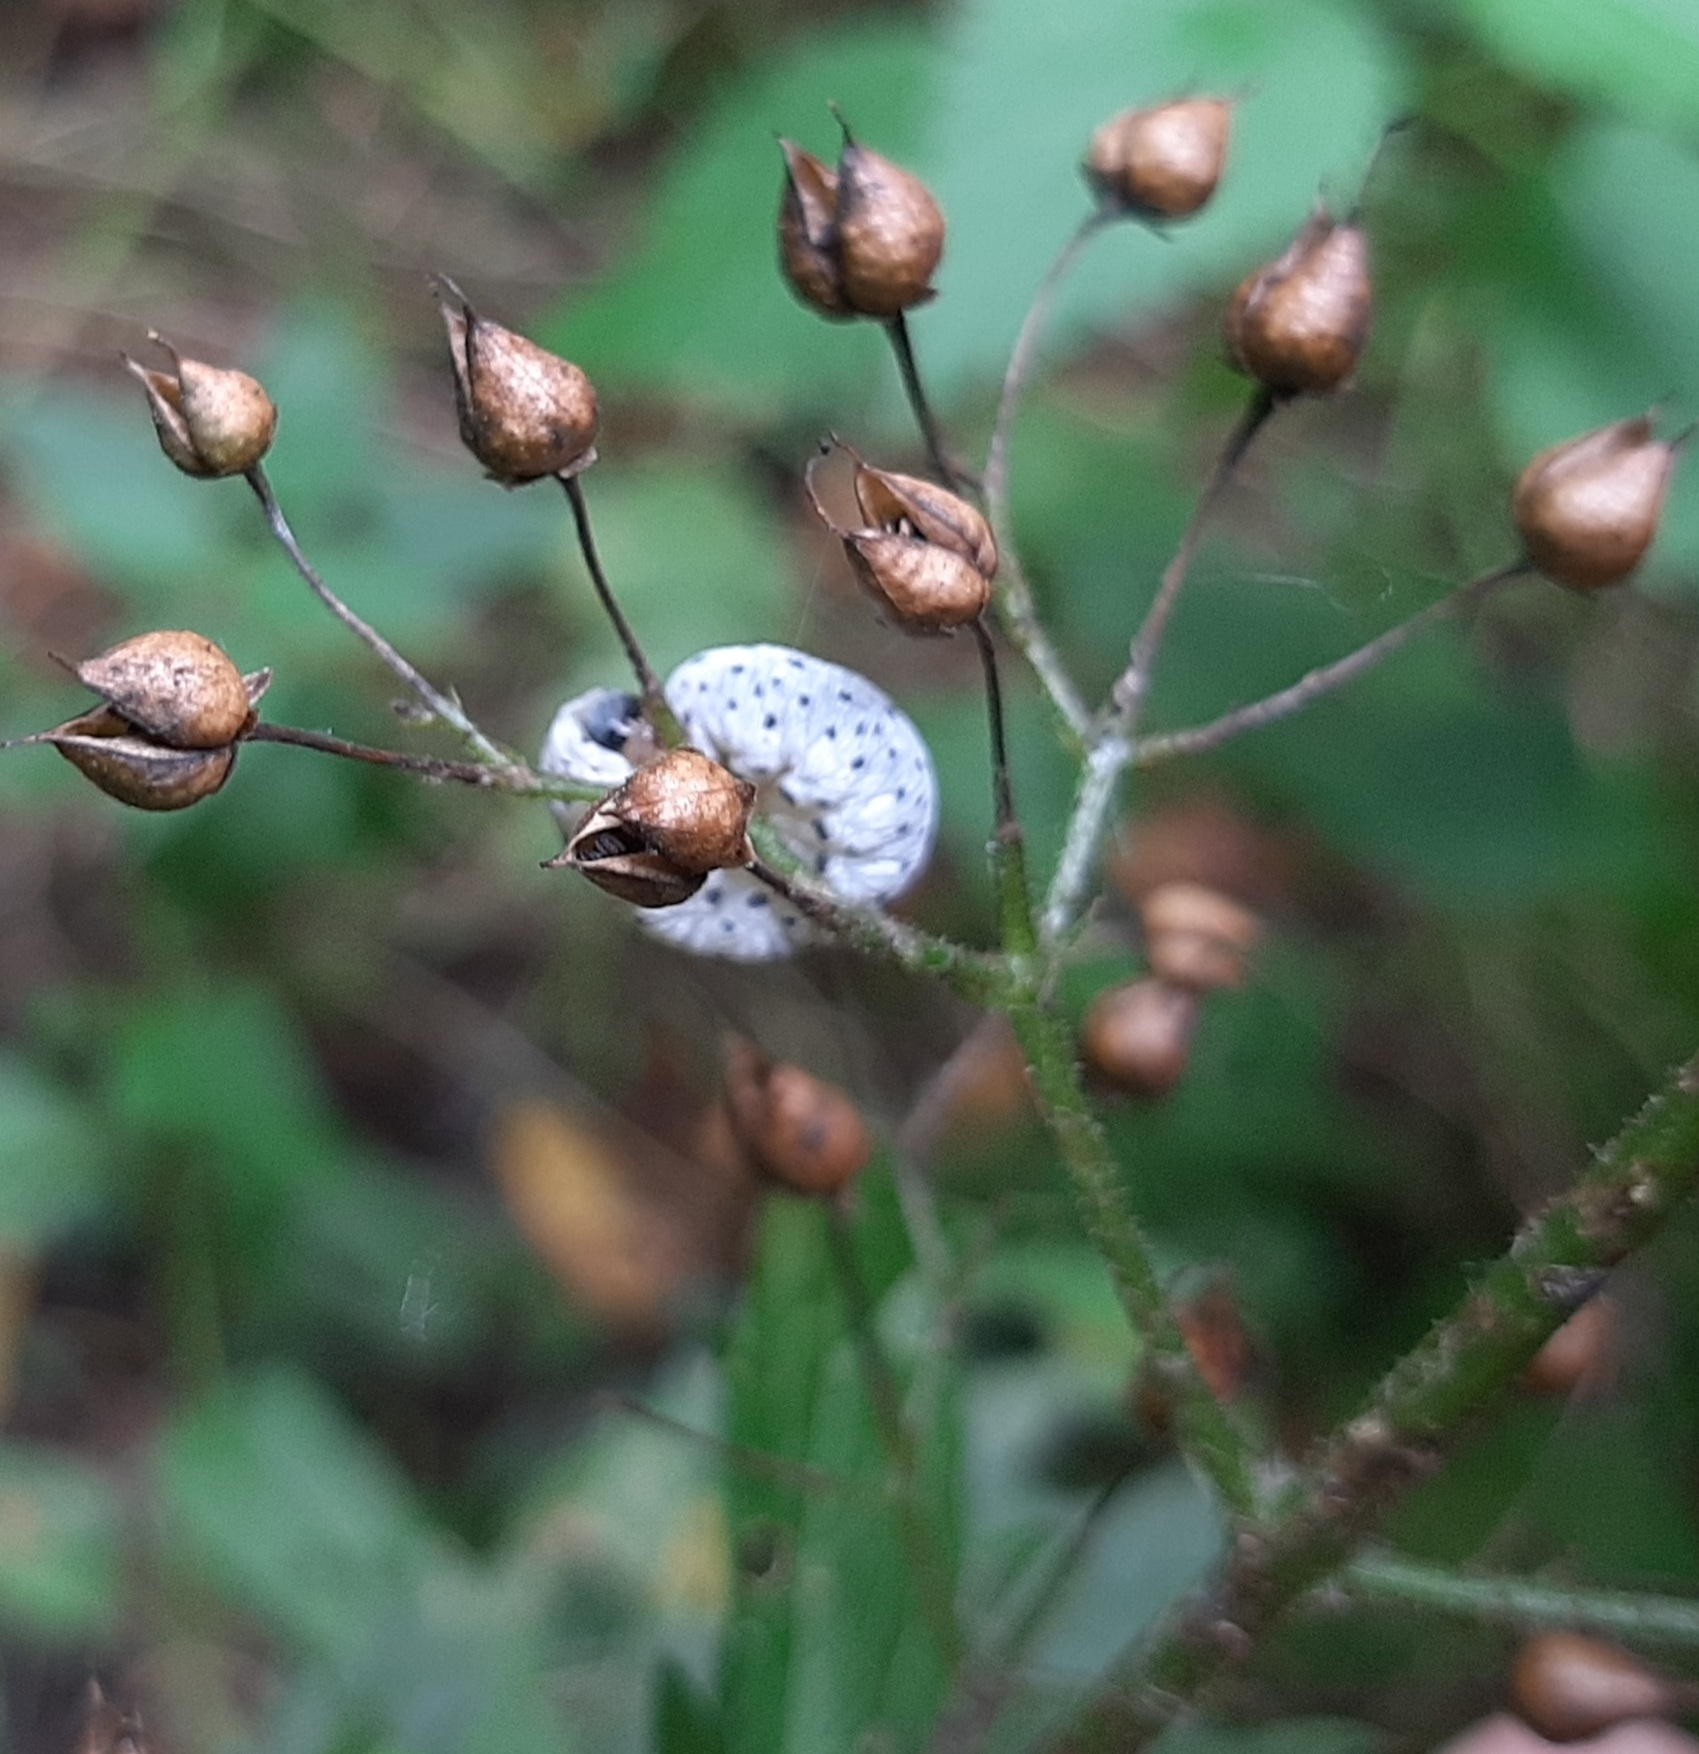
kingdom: Animalia
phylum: Arthropoda
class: Insecta
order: Hymenoptera
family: Tenthredinidae
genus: Tenthredo
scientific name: Tenthredo scrophulariae
